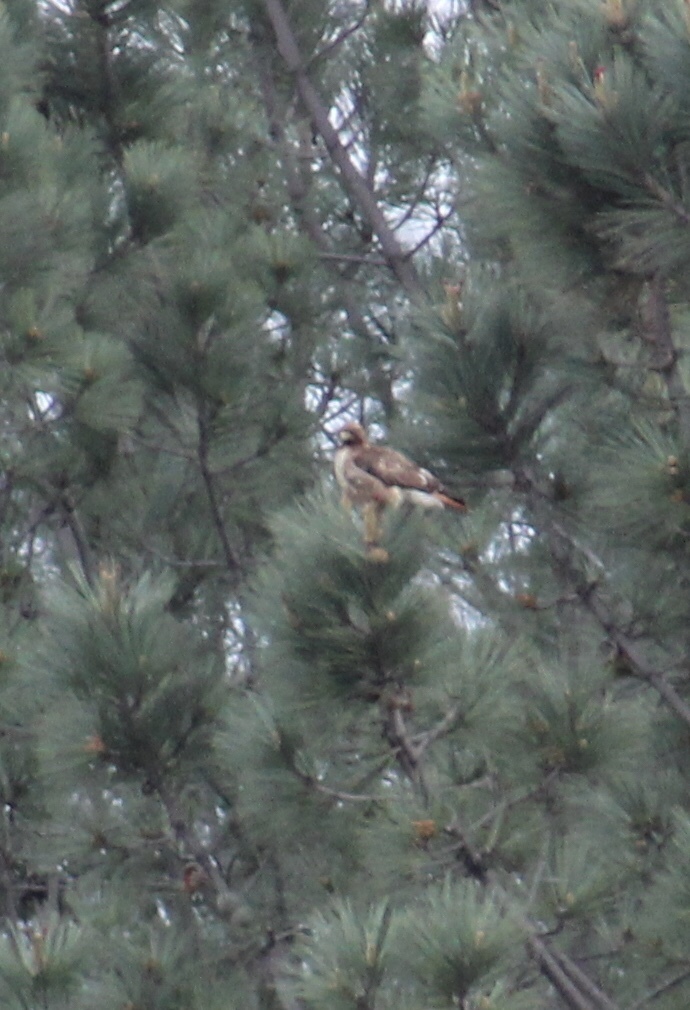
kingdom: Animalia
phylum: Chordata
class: Aves
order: Accipitriformes
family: Accipitridae
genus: Buteo
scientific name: Buteo jamaicensis
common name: Red-tailed hawk
